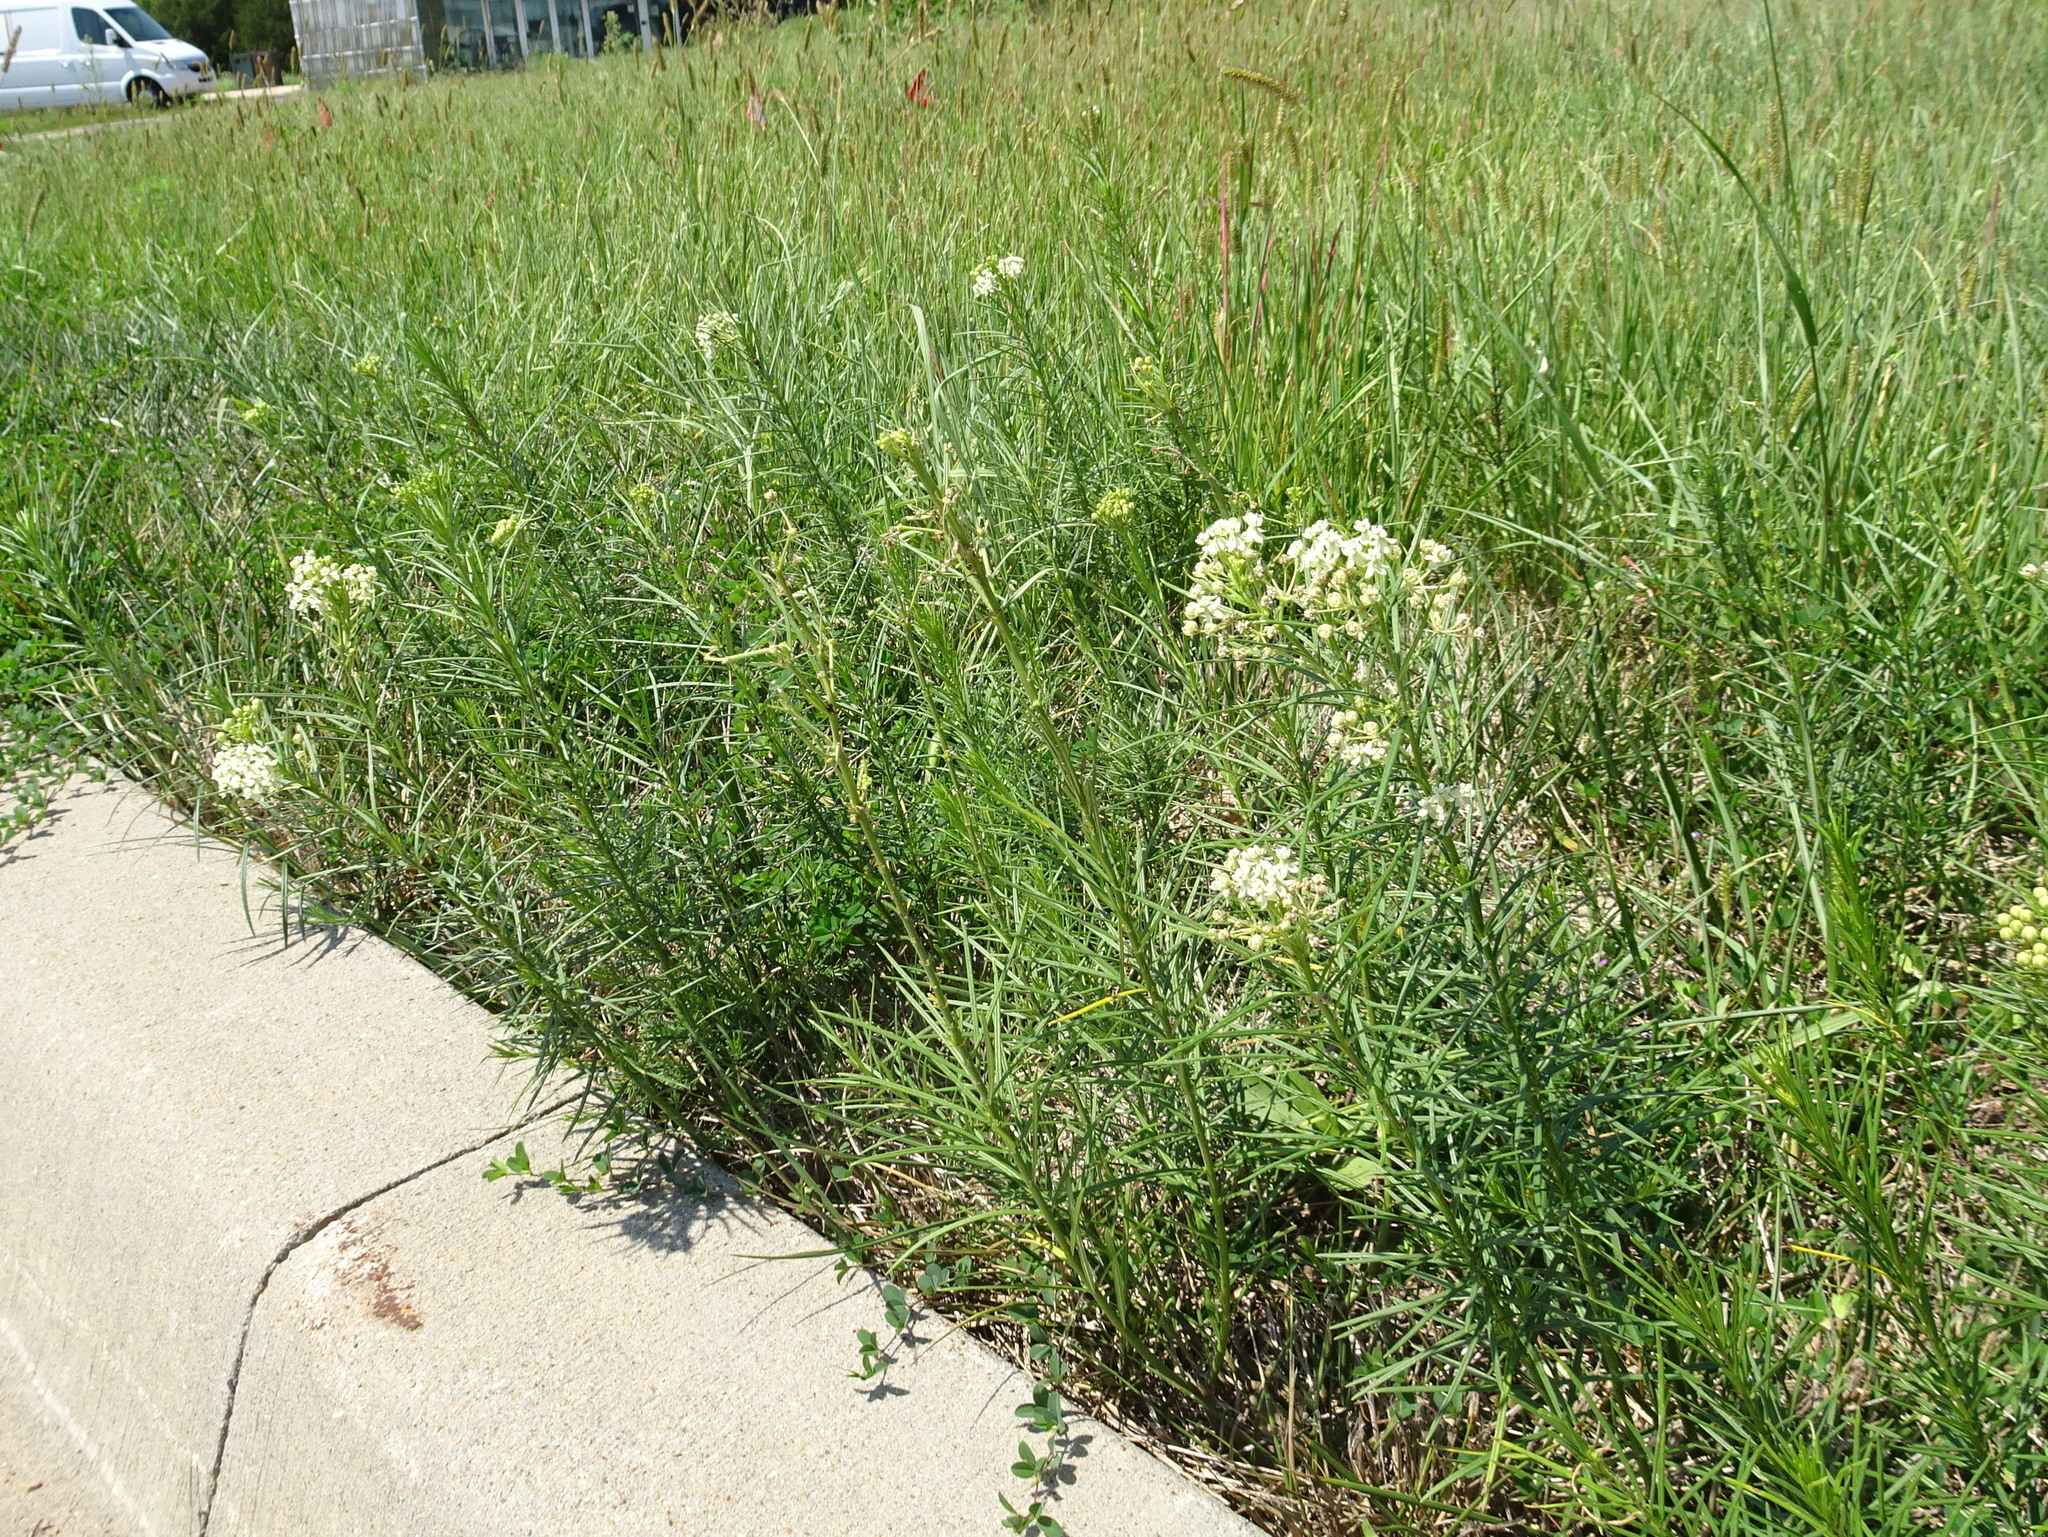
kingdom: Plantae
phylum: Tracheophyta
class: Magnoliopsida
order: Gentianales
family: Apocynaceae
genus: Asclepias
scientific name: Asclepias verticillata
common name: Eastern whorled milkweed
